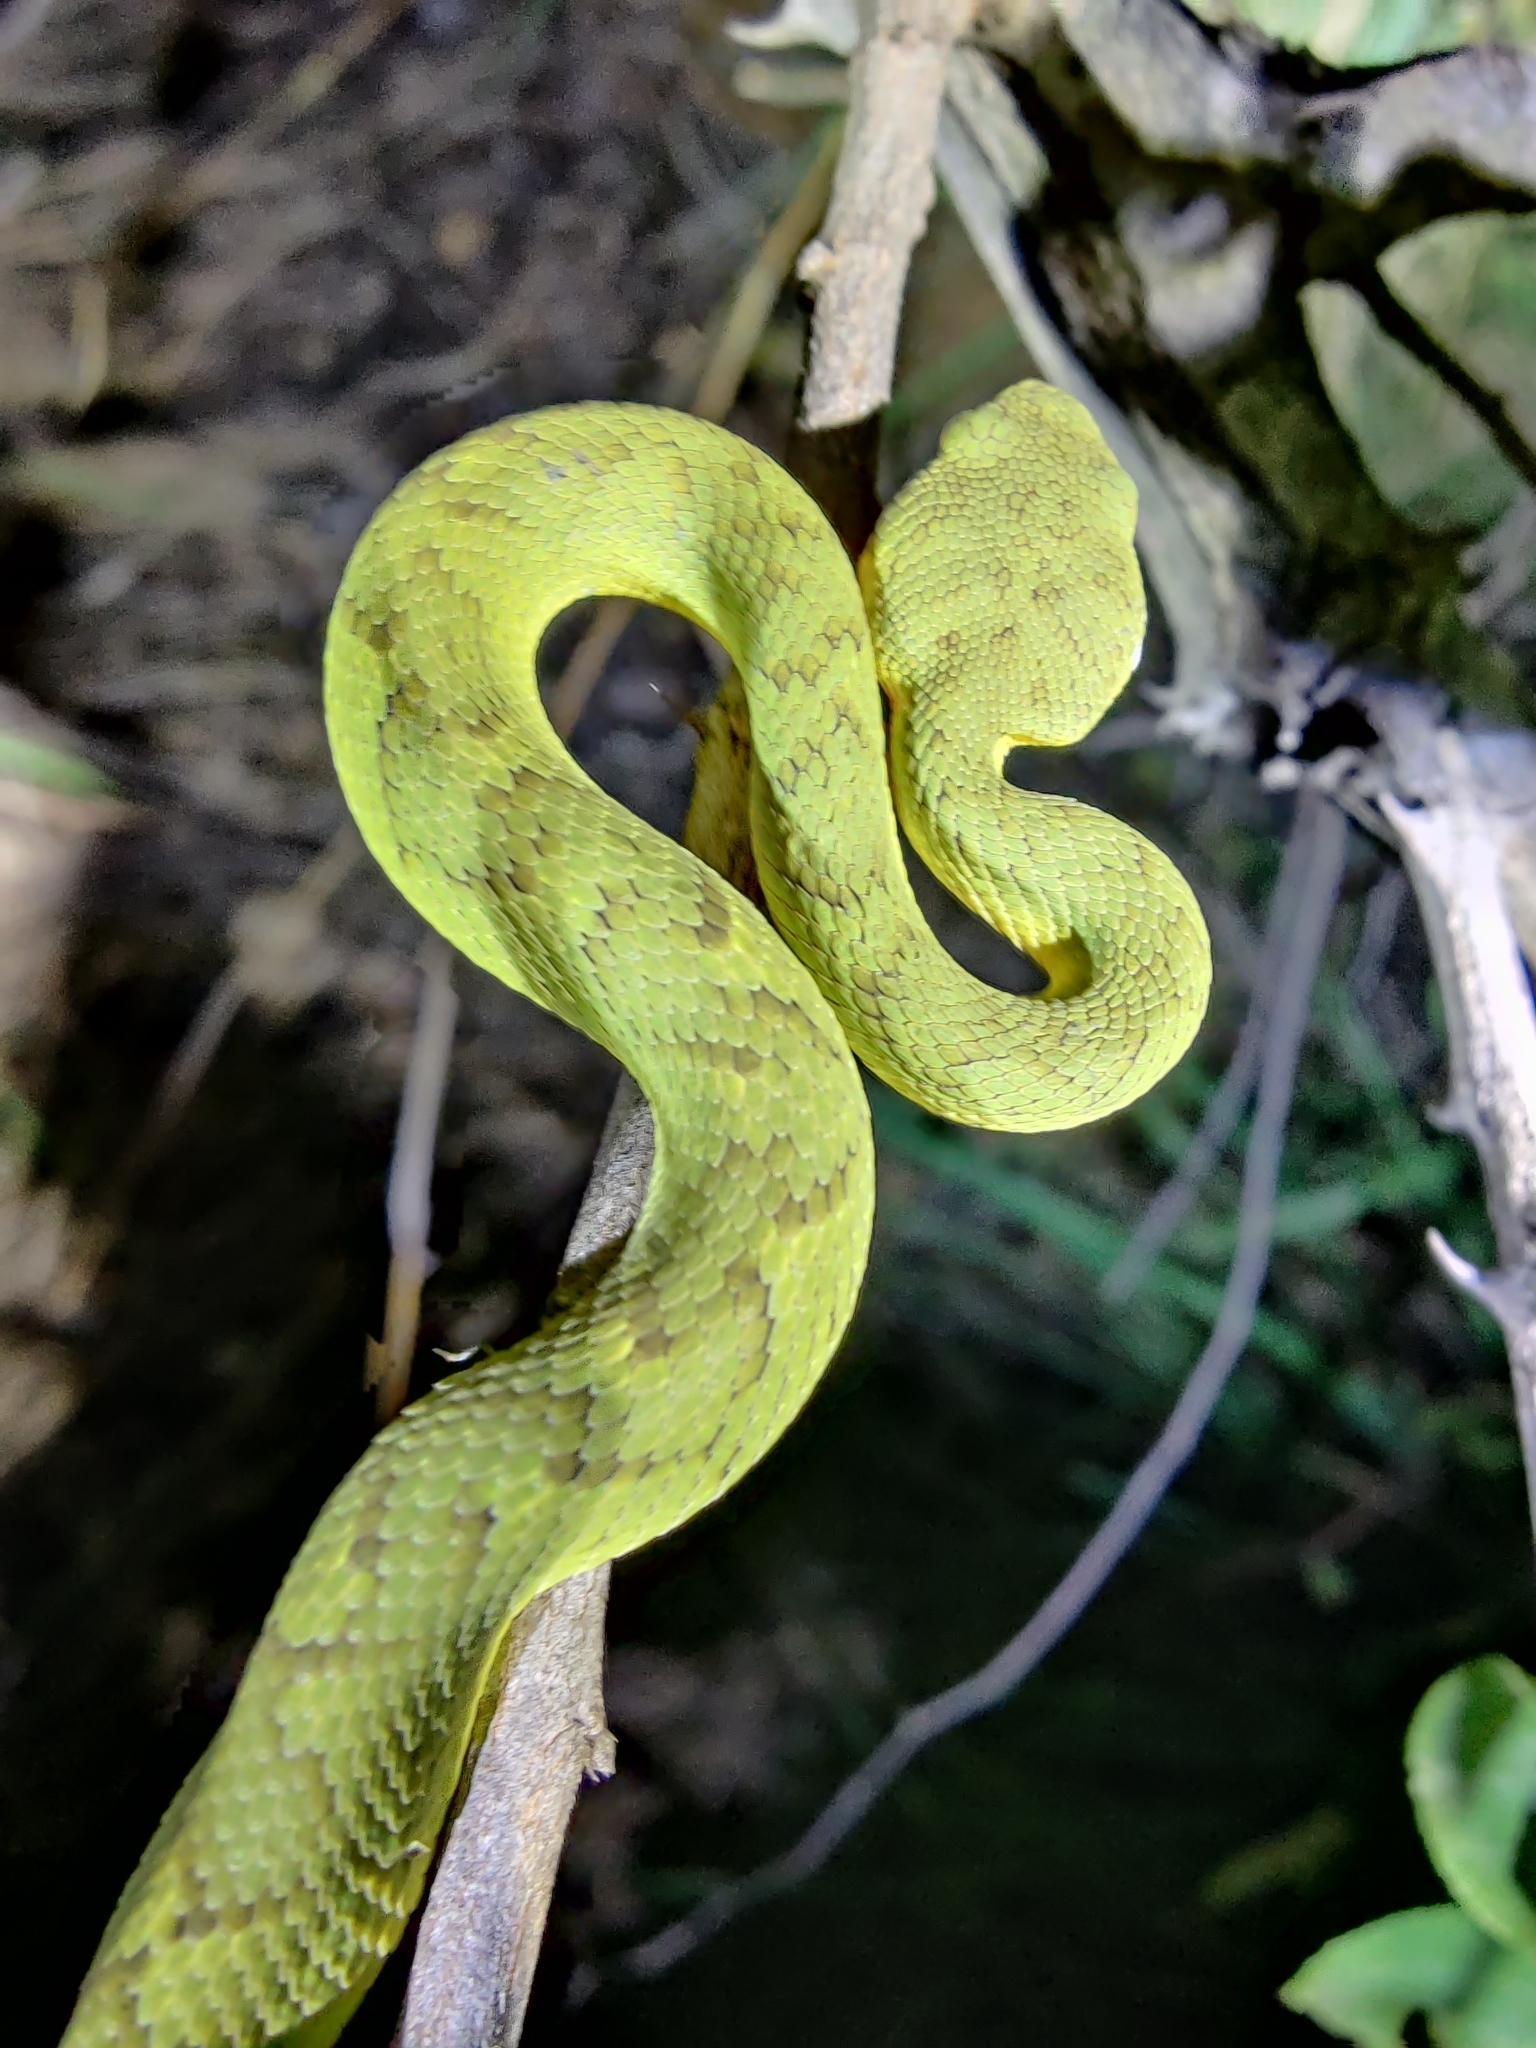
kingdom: Animalia
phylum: Chordata
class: Squamata
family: Viperidae
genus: Craspedocephalus
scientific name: Craspedocephalus gramineus
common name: Common bamboo viper
